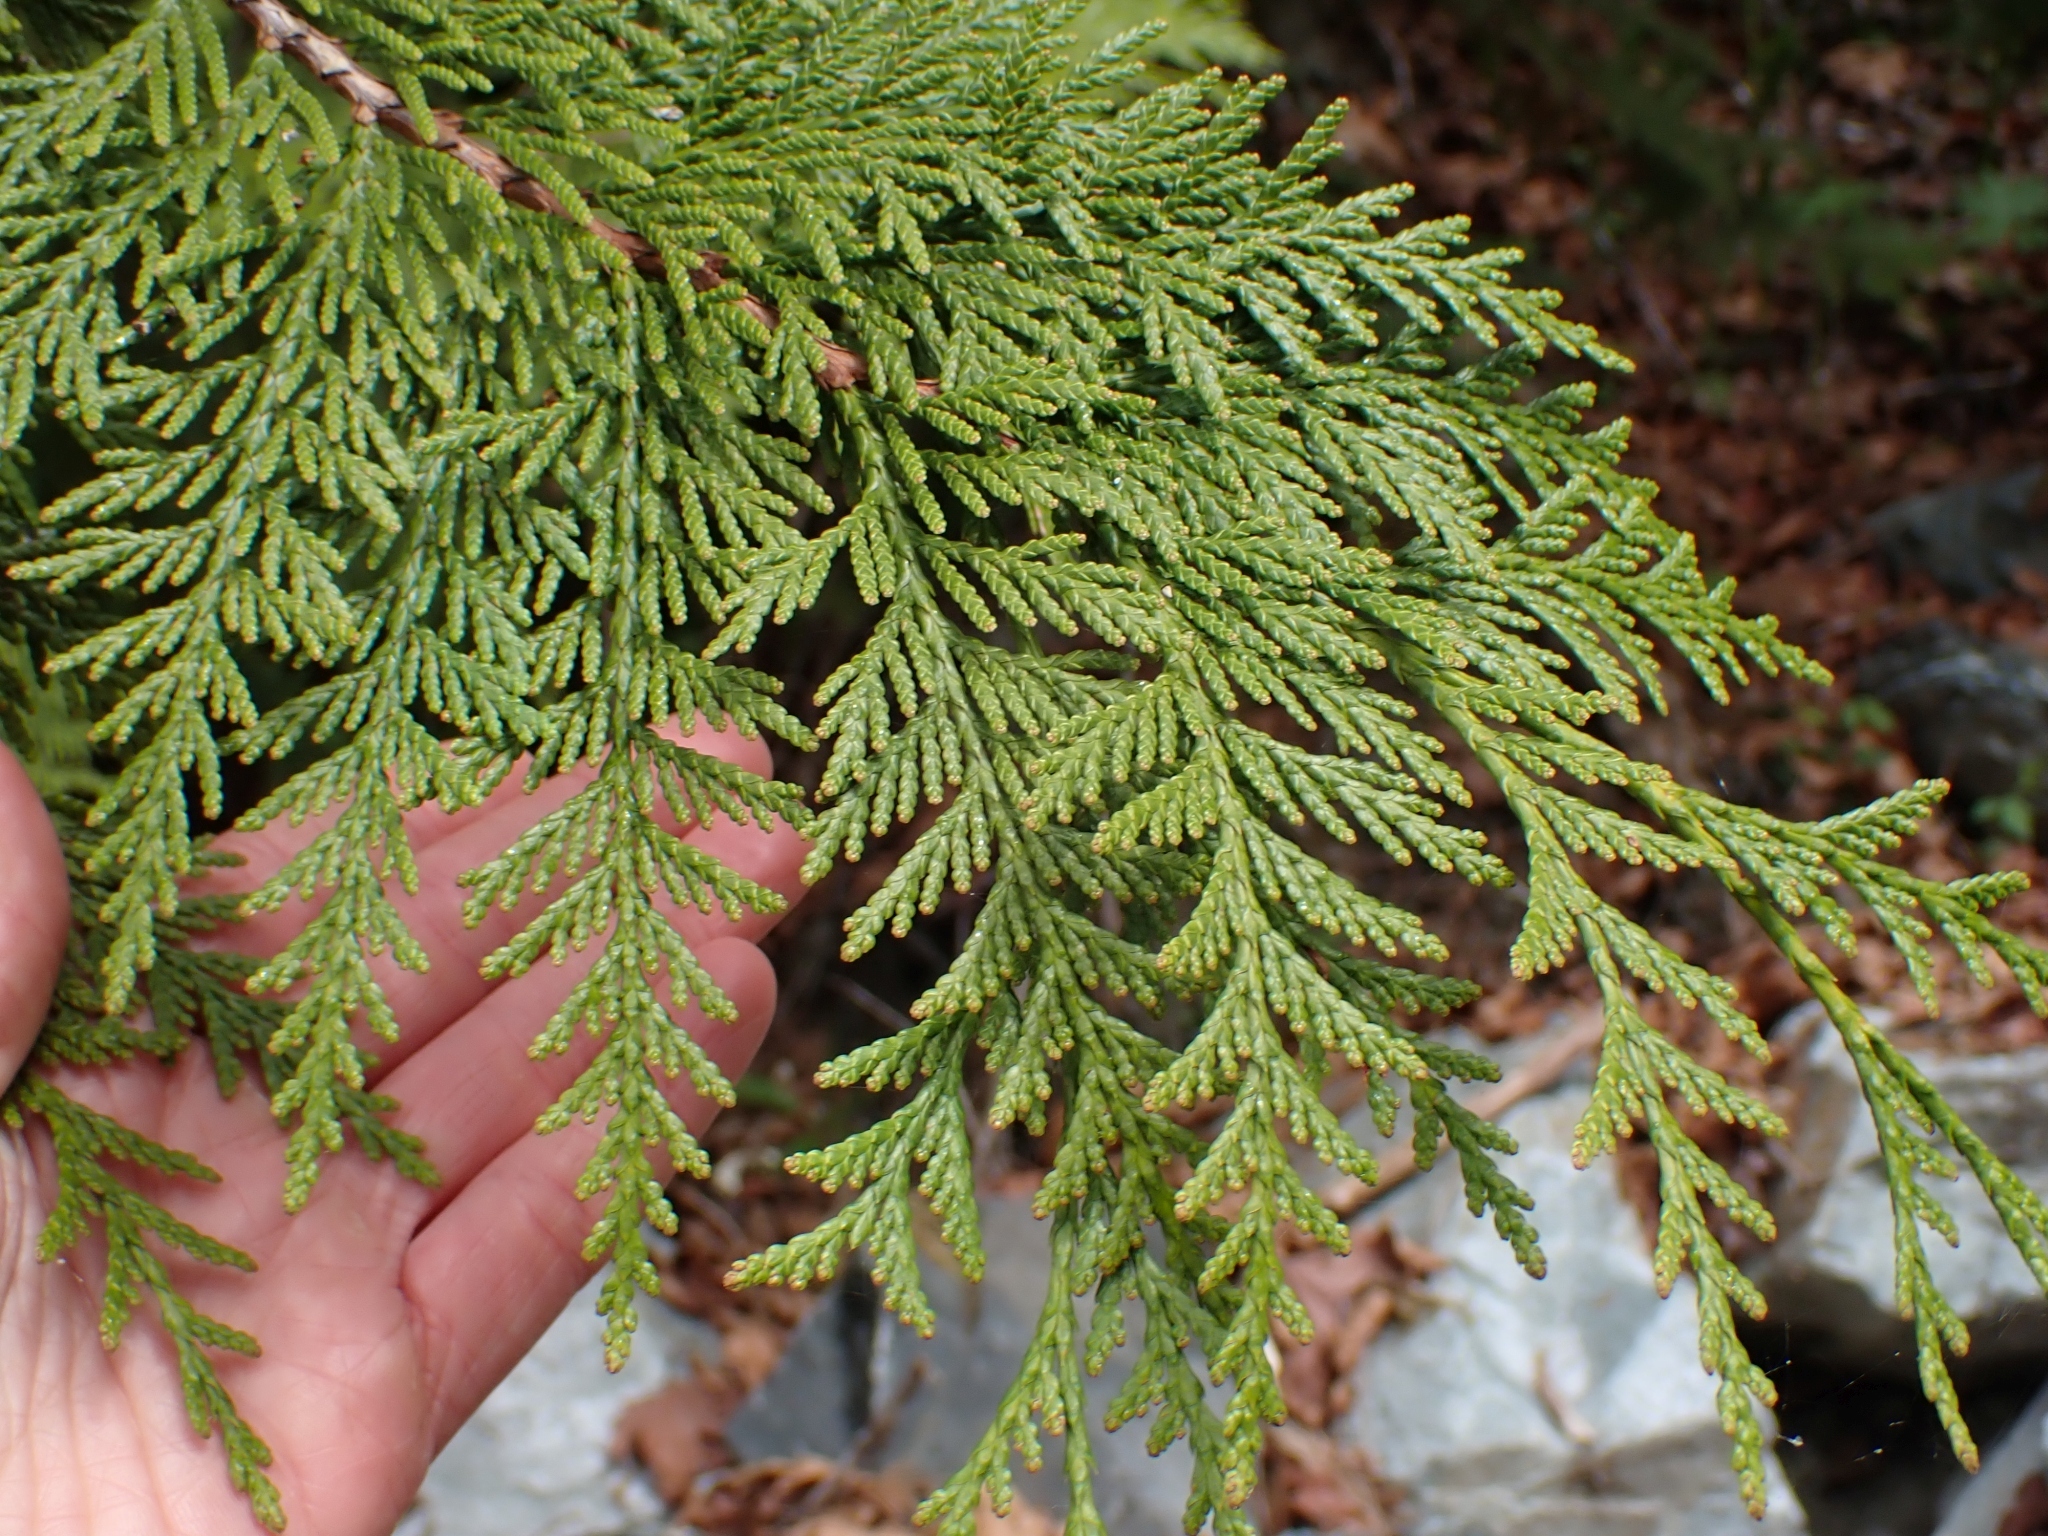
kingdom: Plantae
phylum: Tracheophyta
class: Pinopsida
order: Pinales
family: Cupressaceae
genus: Thuja
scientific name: Thuja plicata
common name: Western red-cedar
